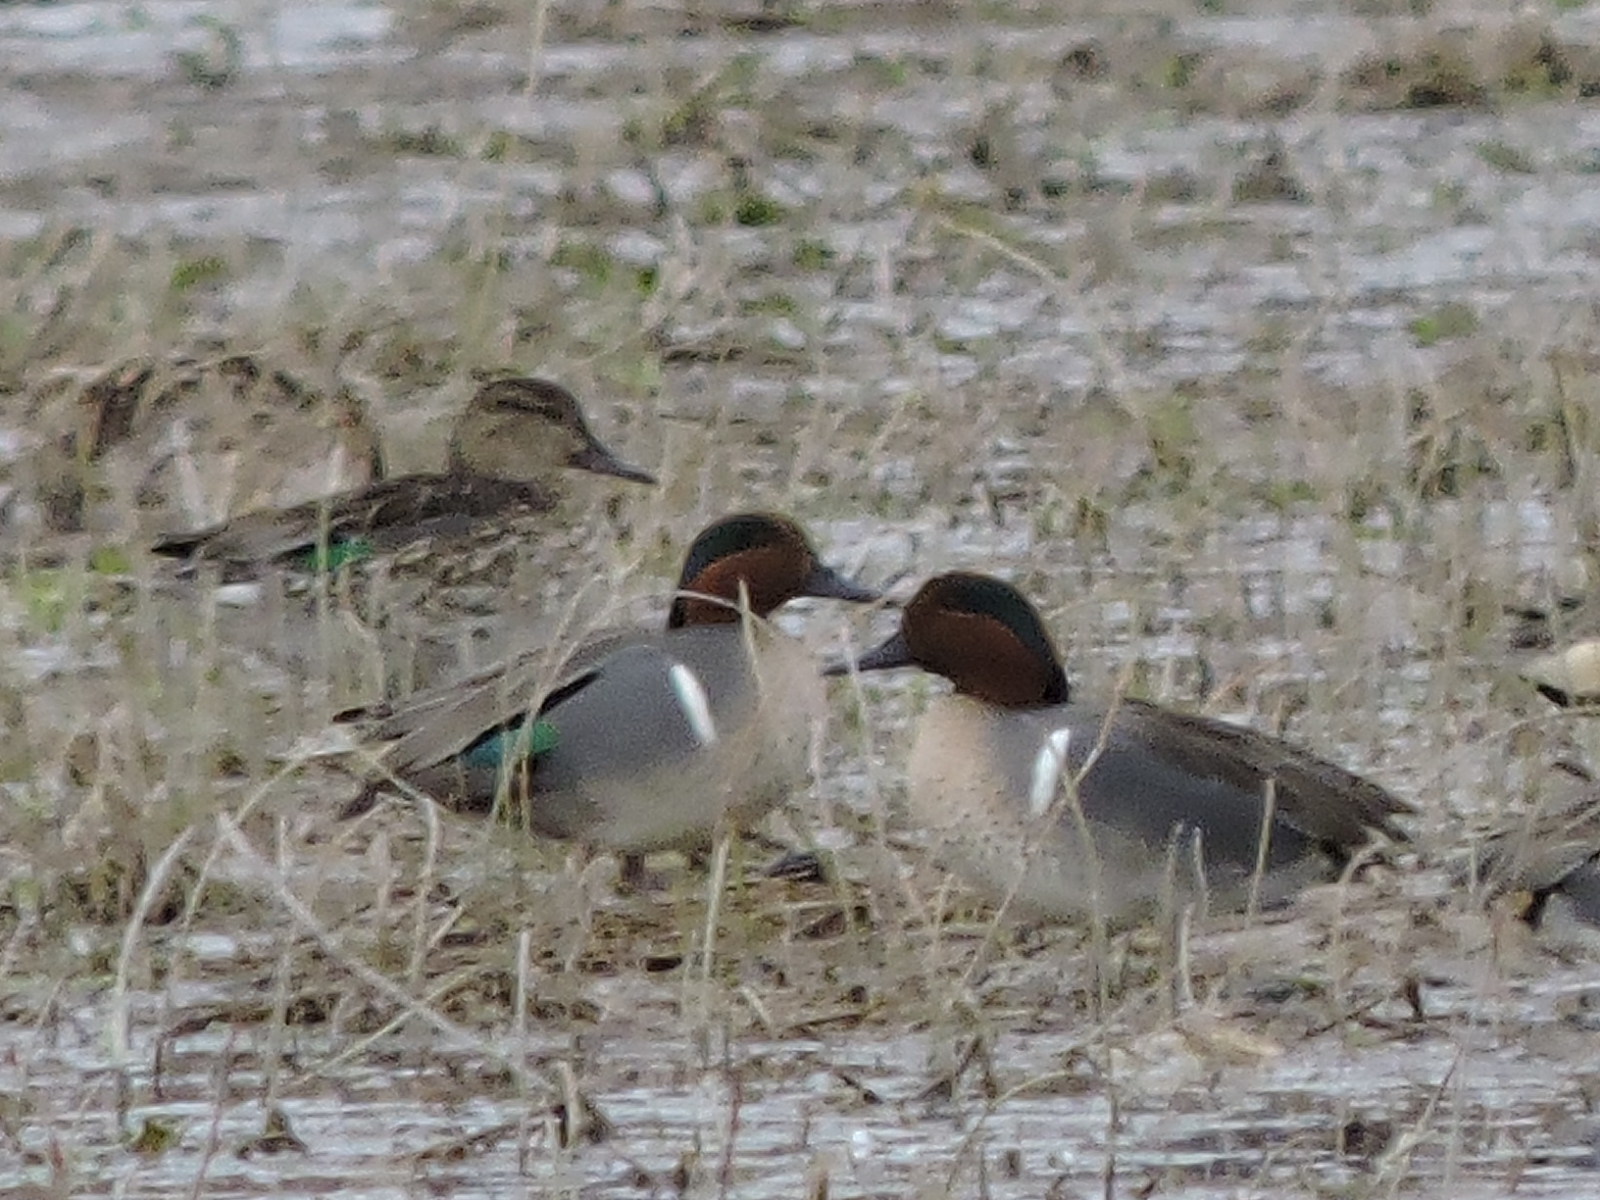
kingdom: Animalia
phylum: Chordata
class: Aves
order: Anseriformes
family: Anatidae
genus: Anas
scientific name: Anas crecca
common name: Eurasian teal
